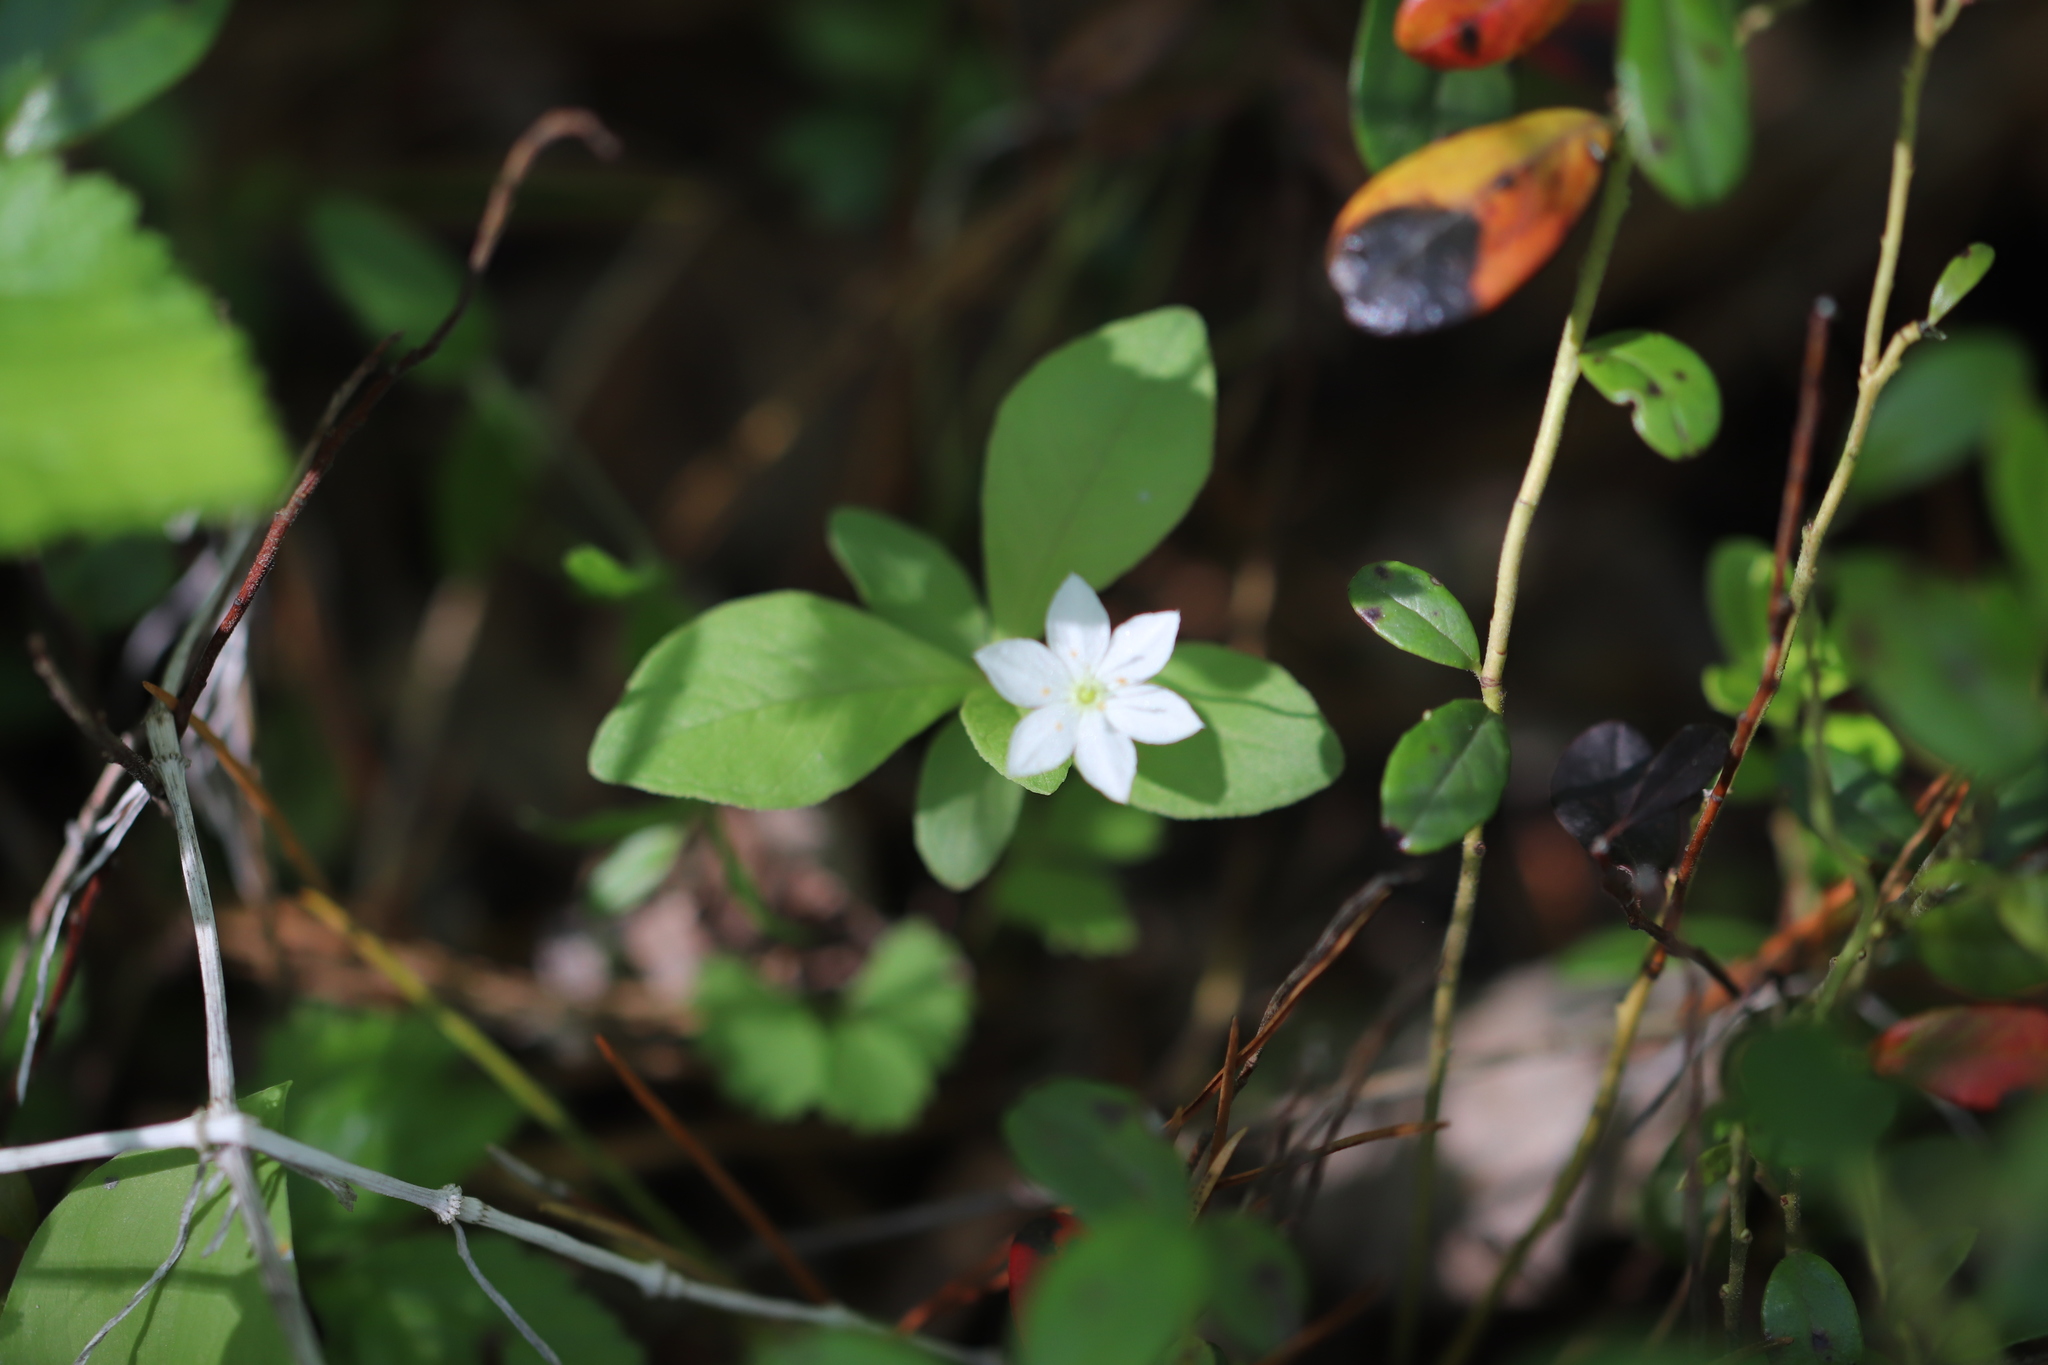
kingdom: Plantae
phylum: Tracheophyta
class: Magnoliopsida
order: Ericales
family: Primulaceae
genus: Lysimachia
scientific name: Lysimachia europaea
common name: Arctic starflower
